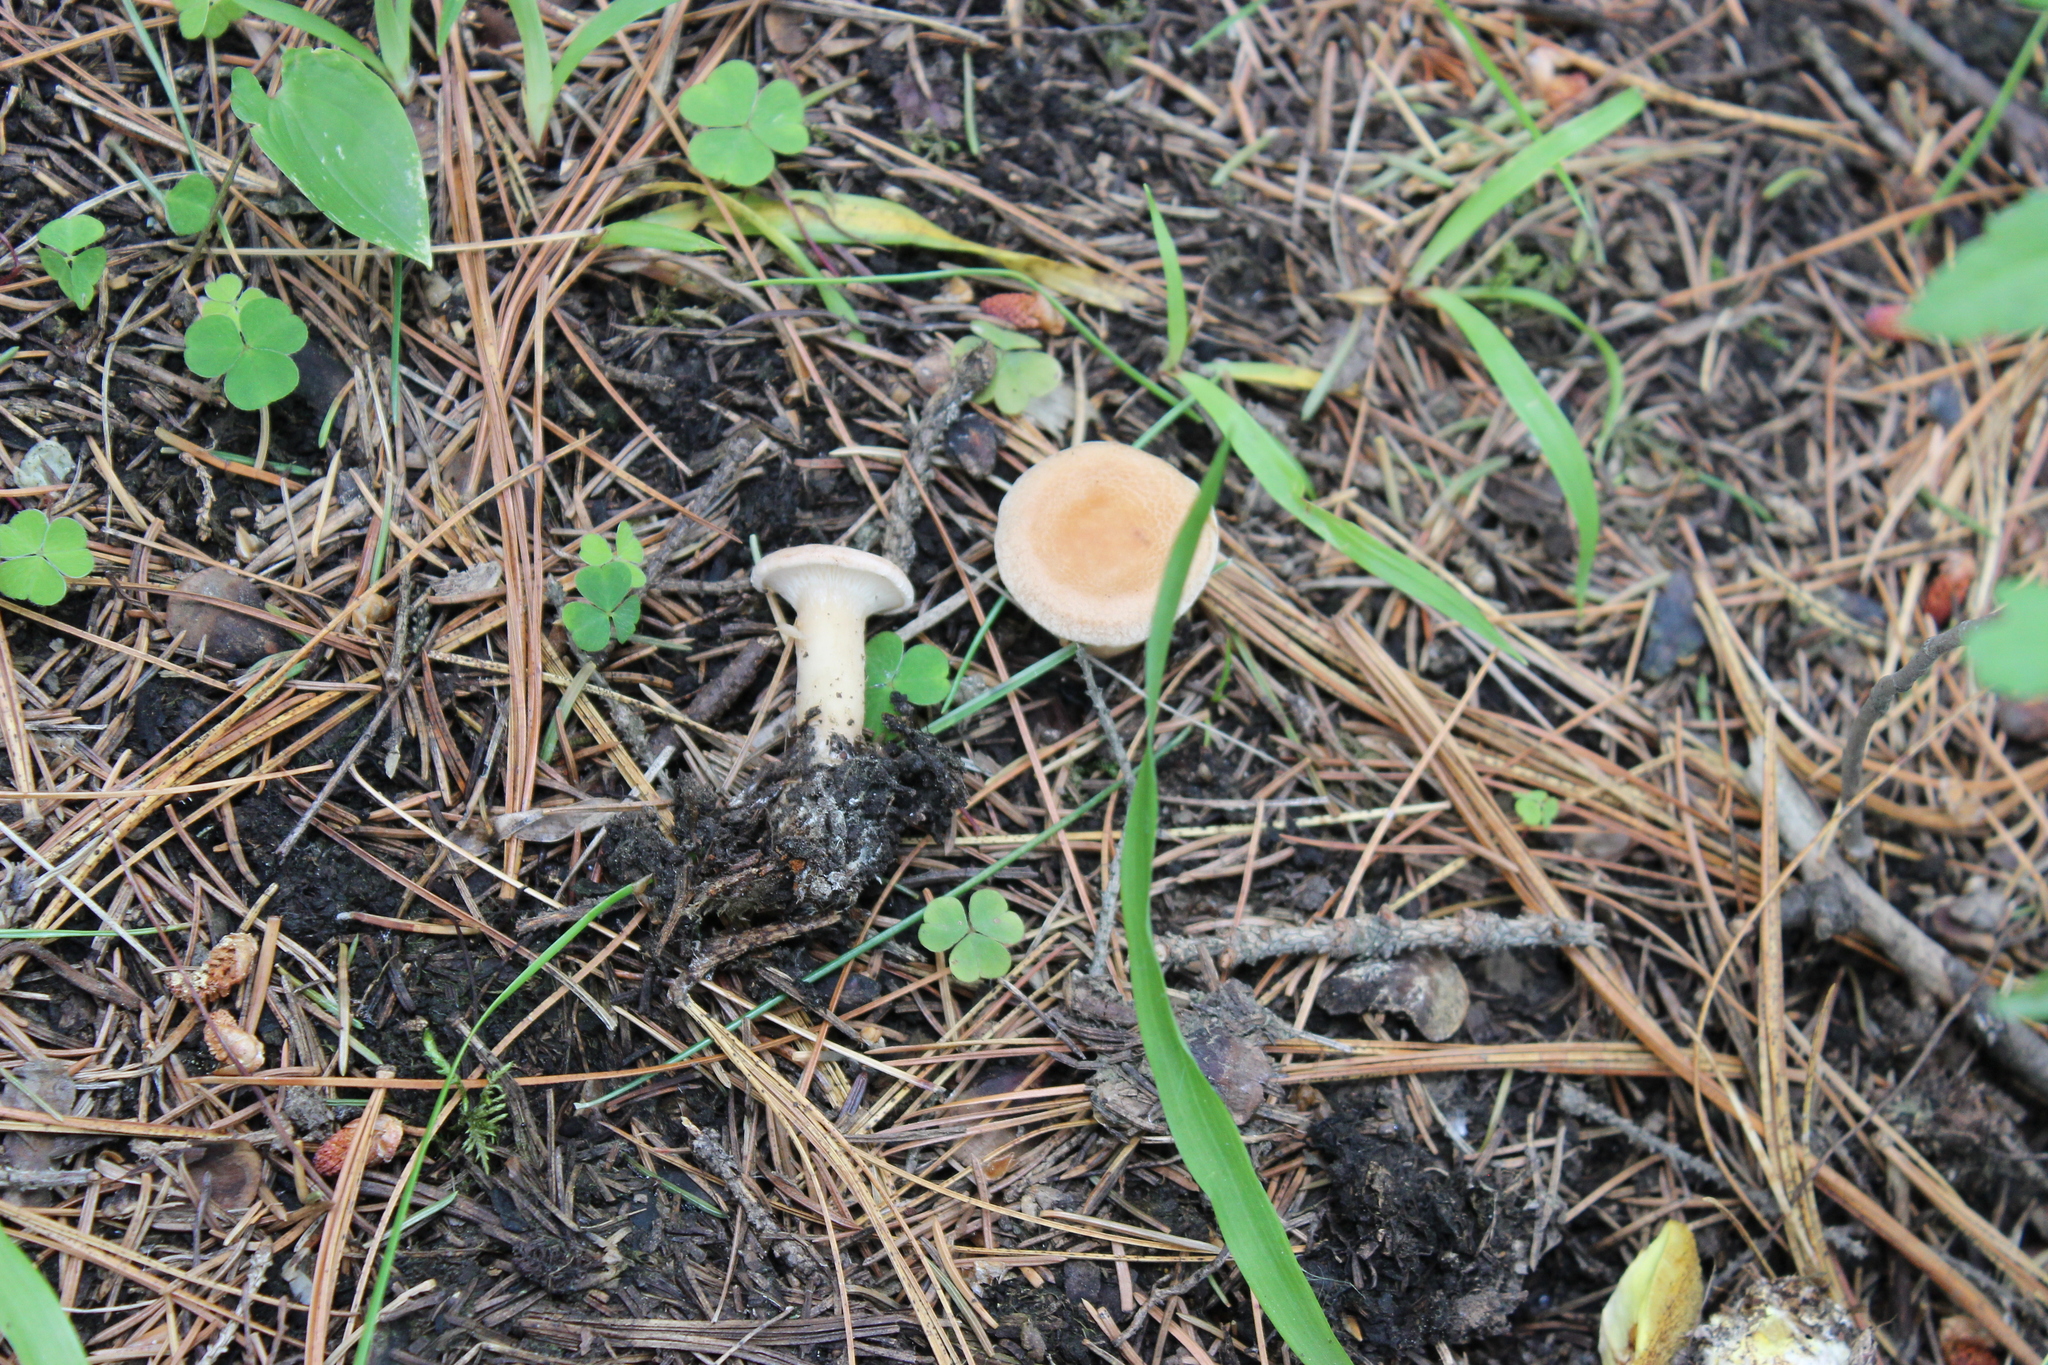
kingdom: Fungi
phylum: Basidiomycota
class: Agaricomycetes
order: Agaricales
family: Tricholomataceae
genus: Infundibulicybe
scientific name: Infundibulicybe gibba
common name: Common funnel
